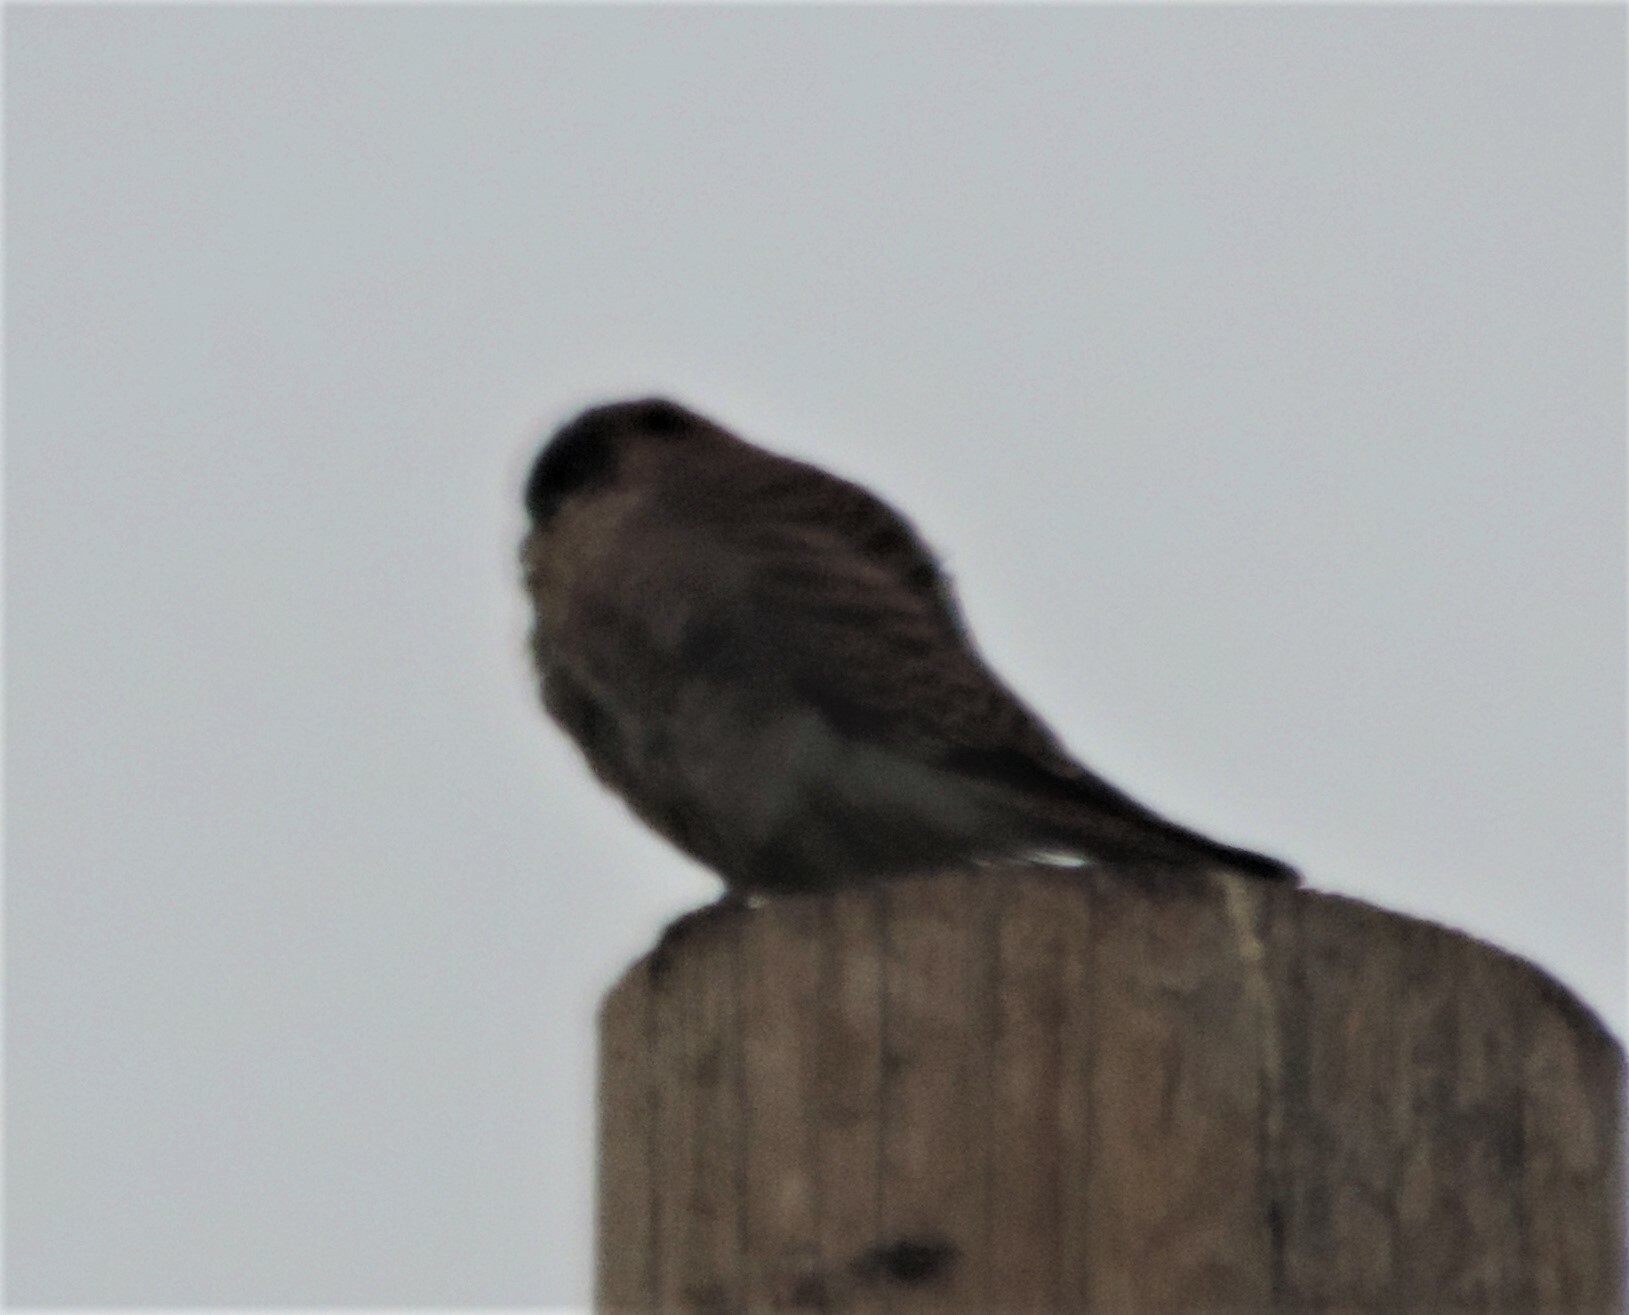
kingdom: Animalia
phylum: Chordata
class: Aves
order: Falconiformes
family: Falconidae
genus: Falco
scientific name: Falco sparverius
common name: American kestrel
